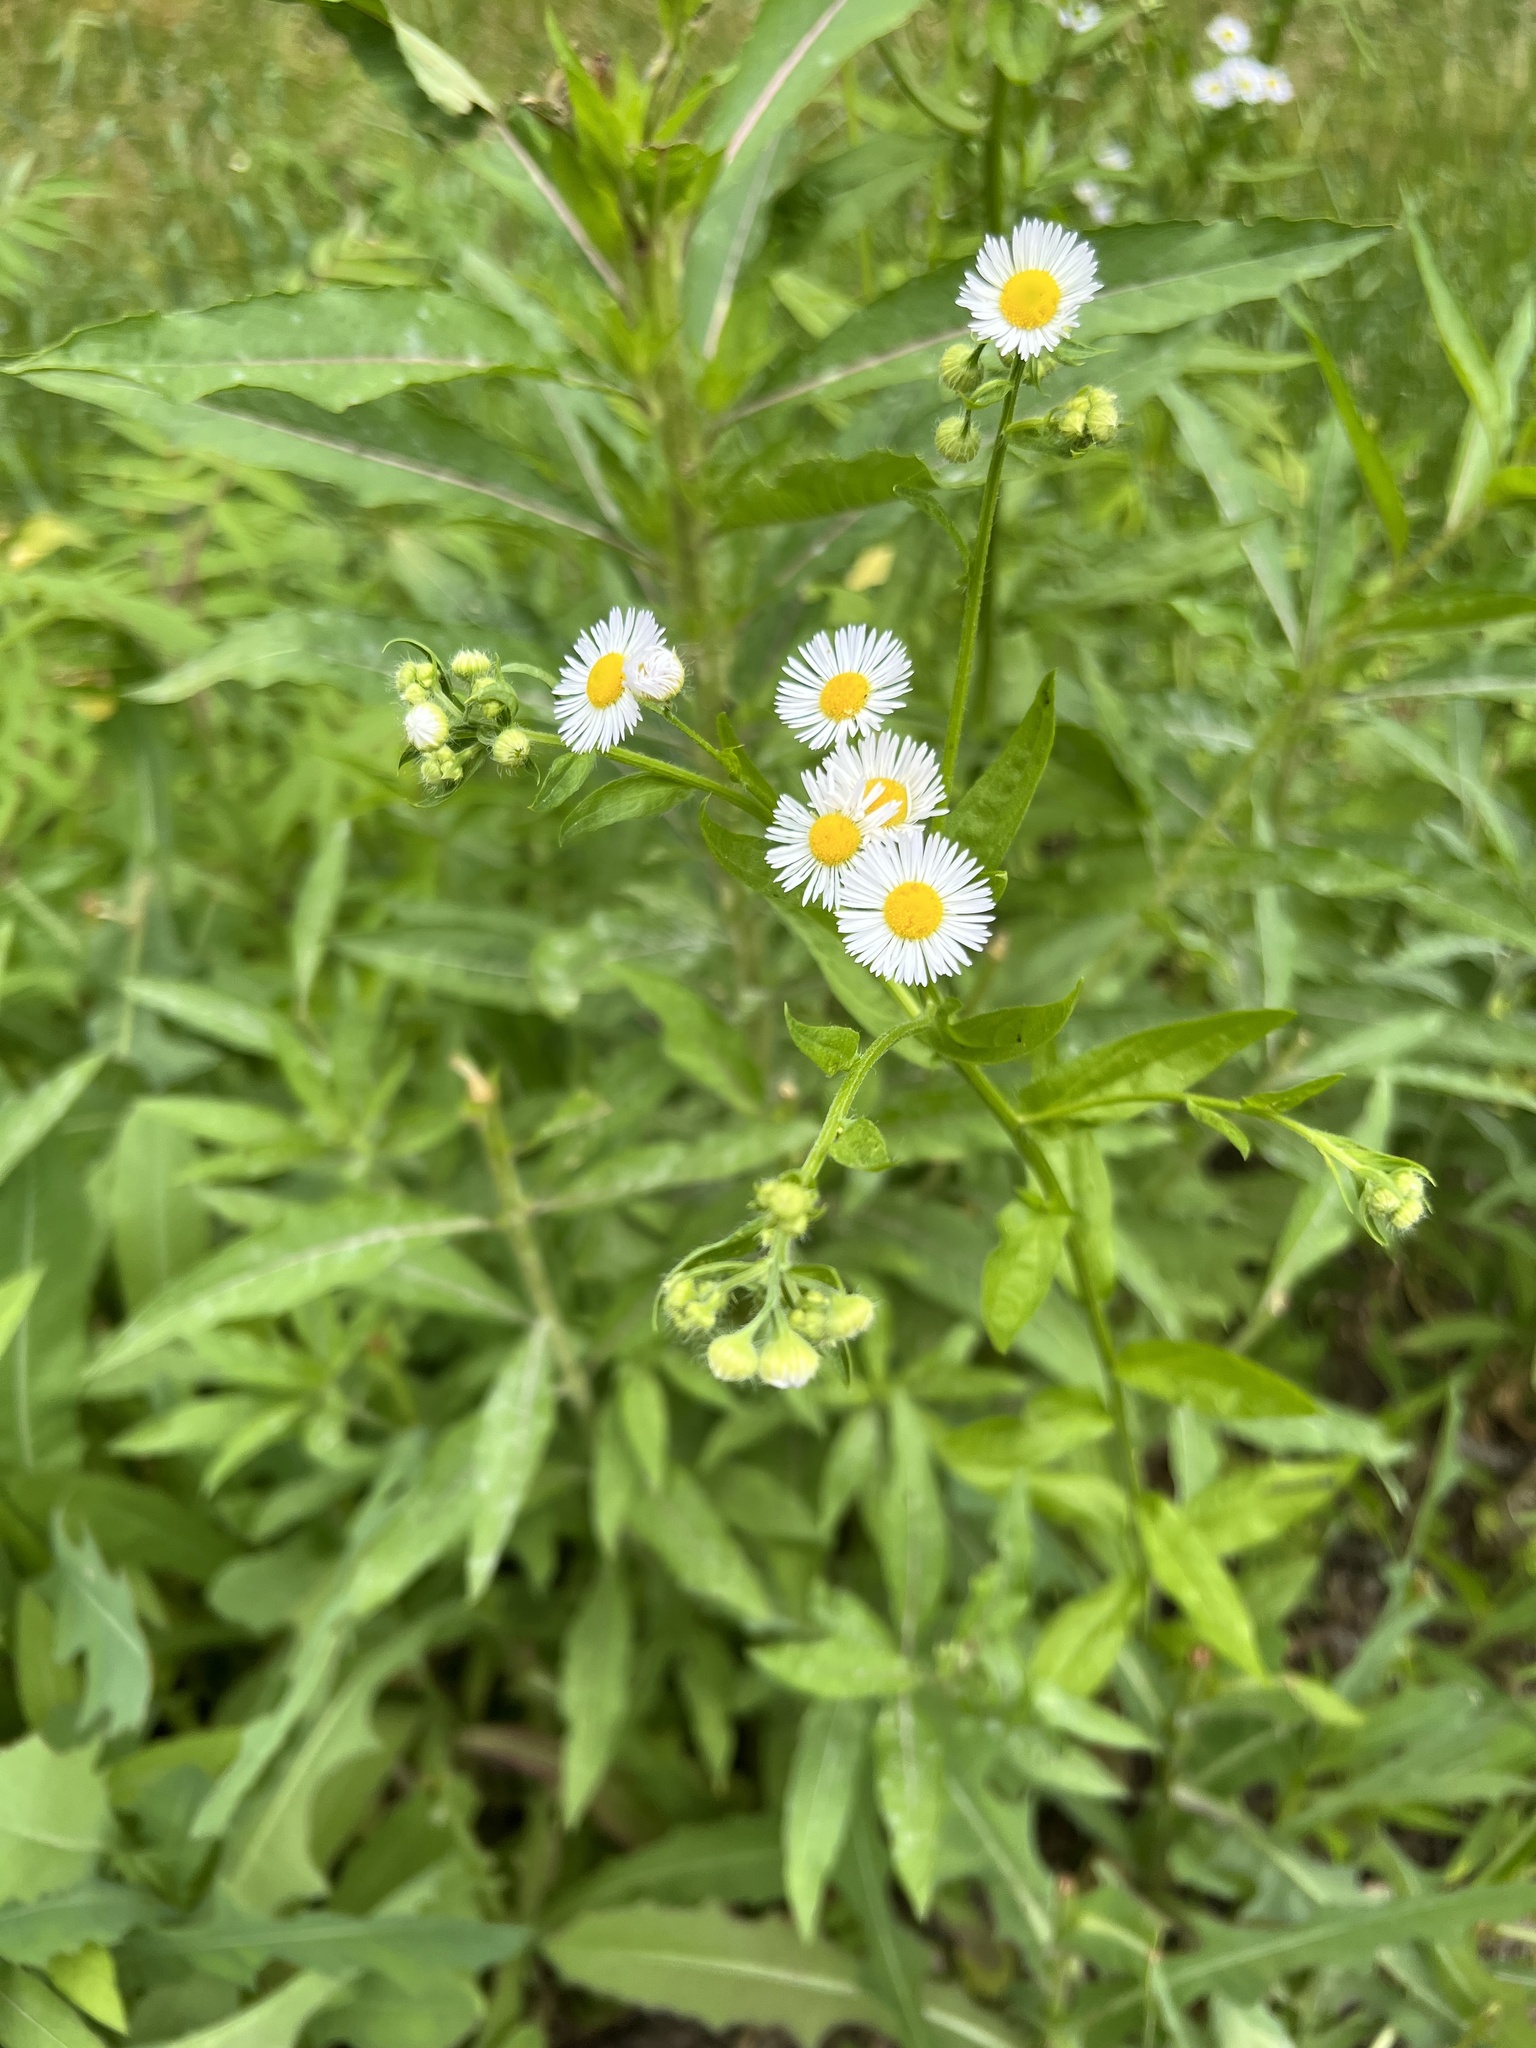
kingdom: Plantae
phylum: Tracheophyta
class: Magnoliopsida
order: Asterales
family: Asteraceae
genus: Erigeron
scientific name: Erigeron annuus
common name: Tall fleabane
